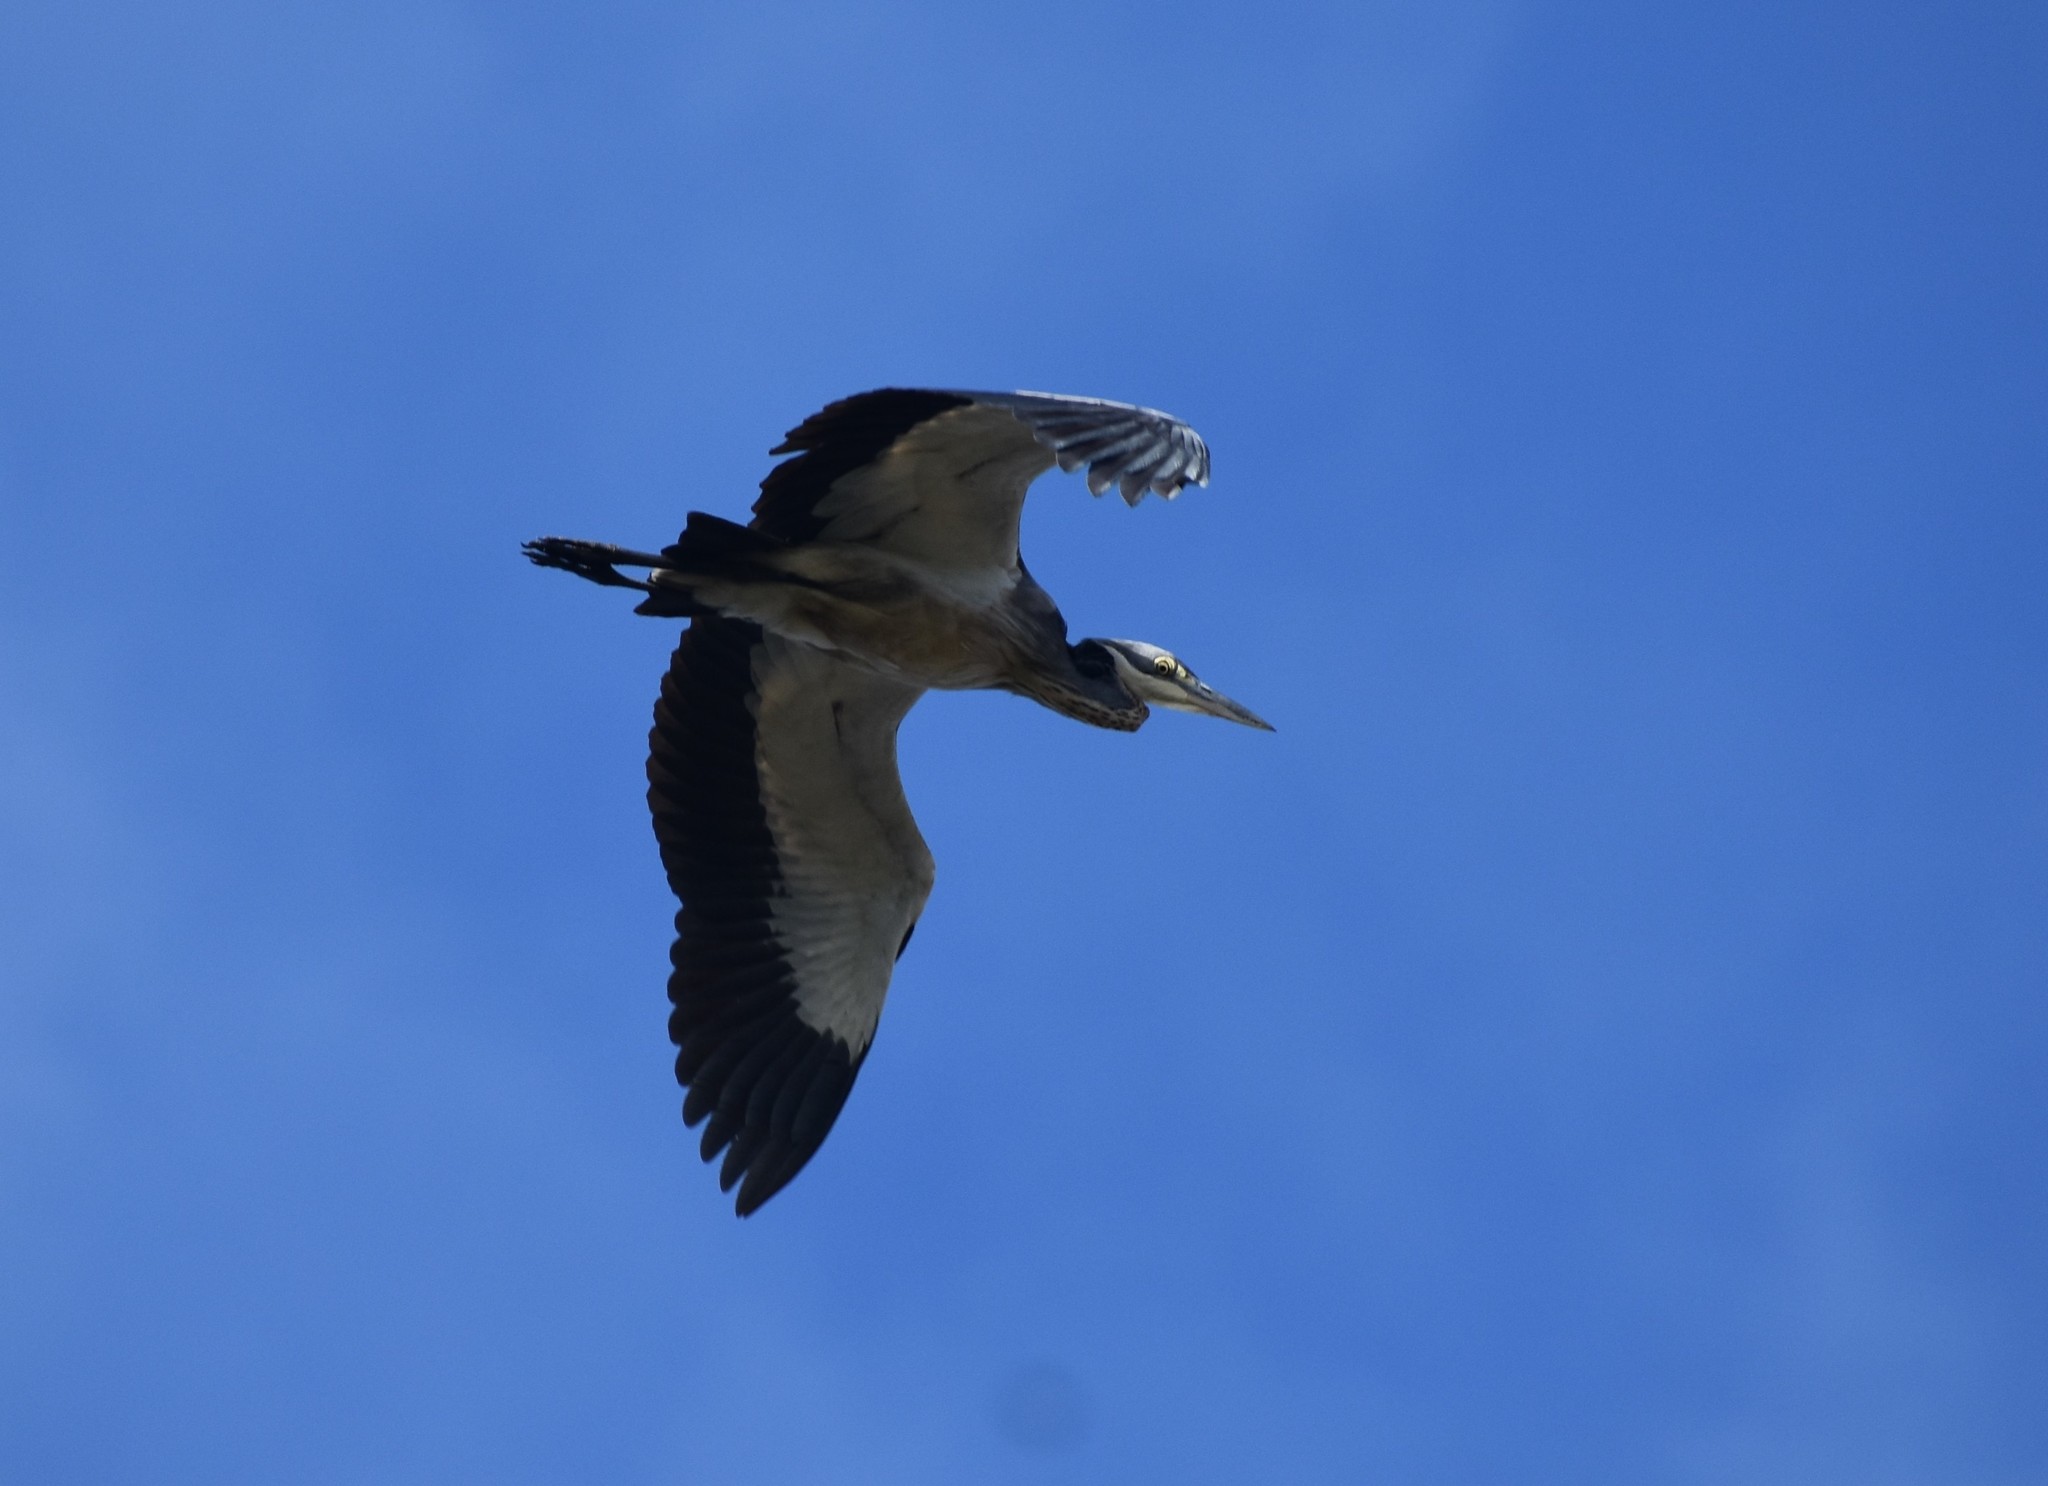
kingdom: Animalia
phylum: Chordata
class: Aves
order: Pelecaniformes
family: Ardeidae
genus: Ardea
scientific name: Ardea melanocephala
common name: Black-headed heron
